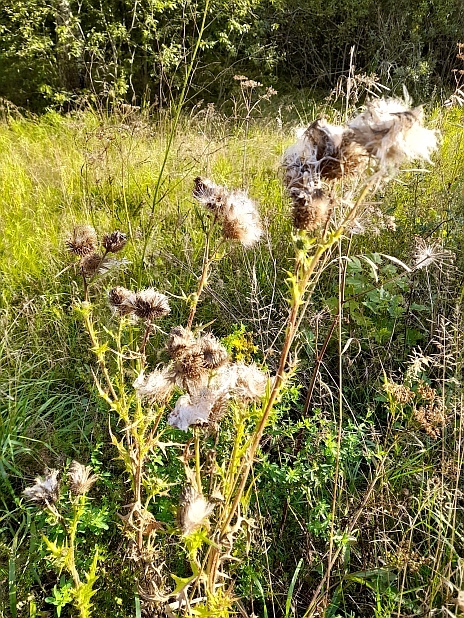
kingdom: Plantae
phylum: Tracheophyta
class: Magnoliopsida
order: Asterales
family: Asteraceae
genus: Cirsium
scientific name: Cirsium vulgare
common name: Bull thistle
